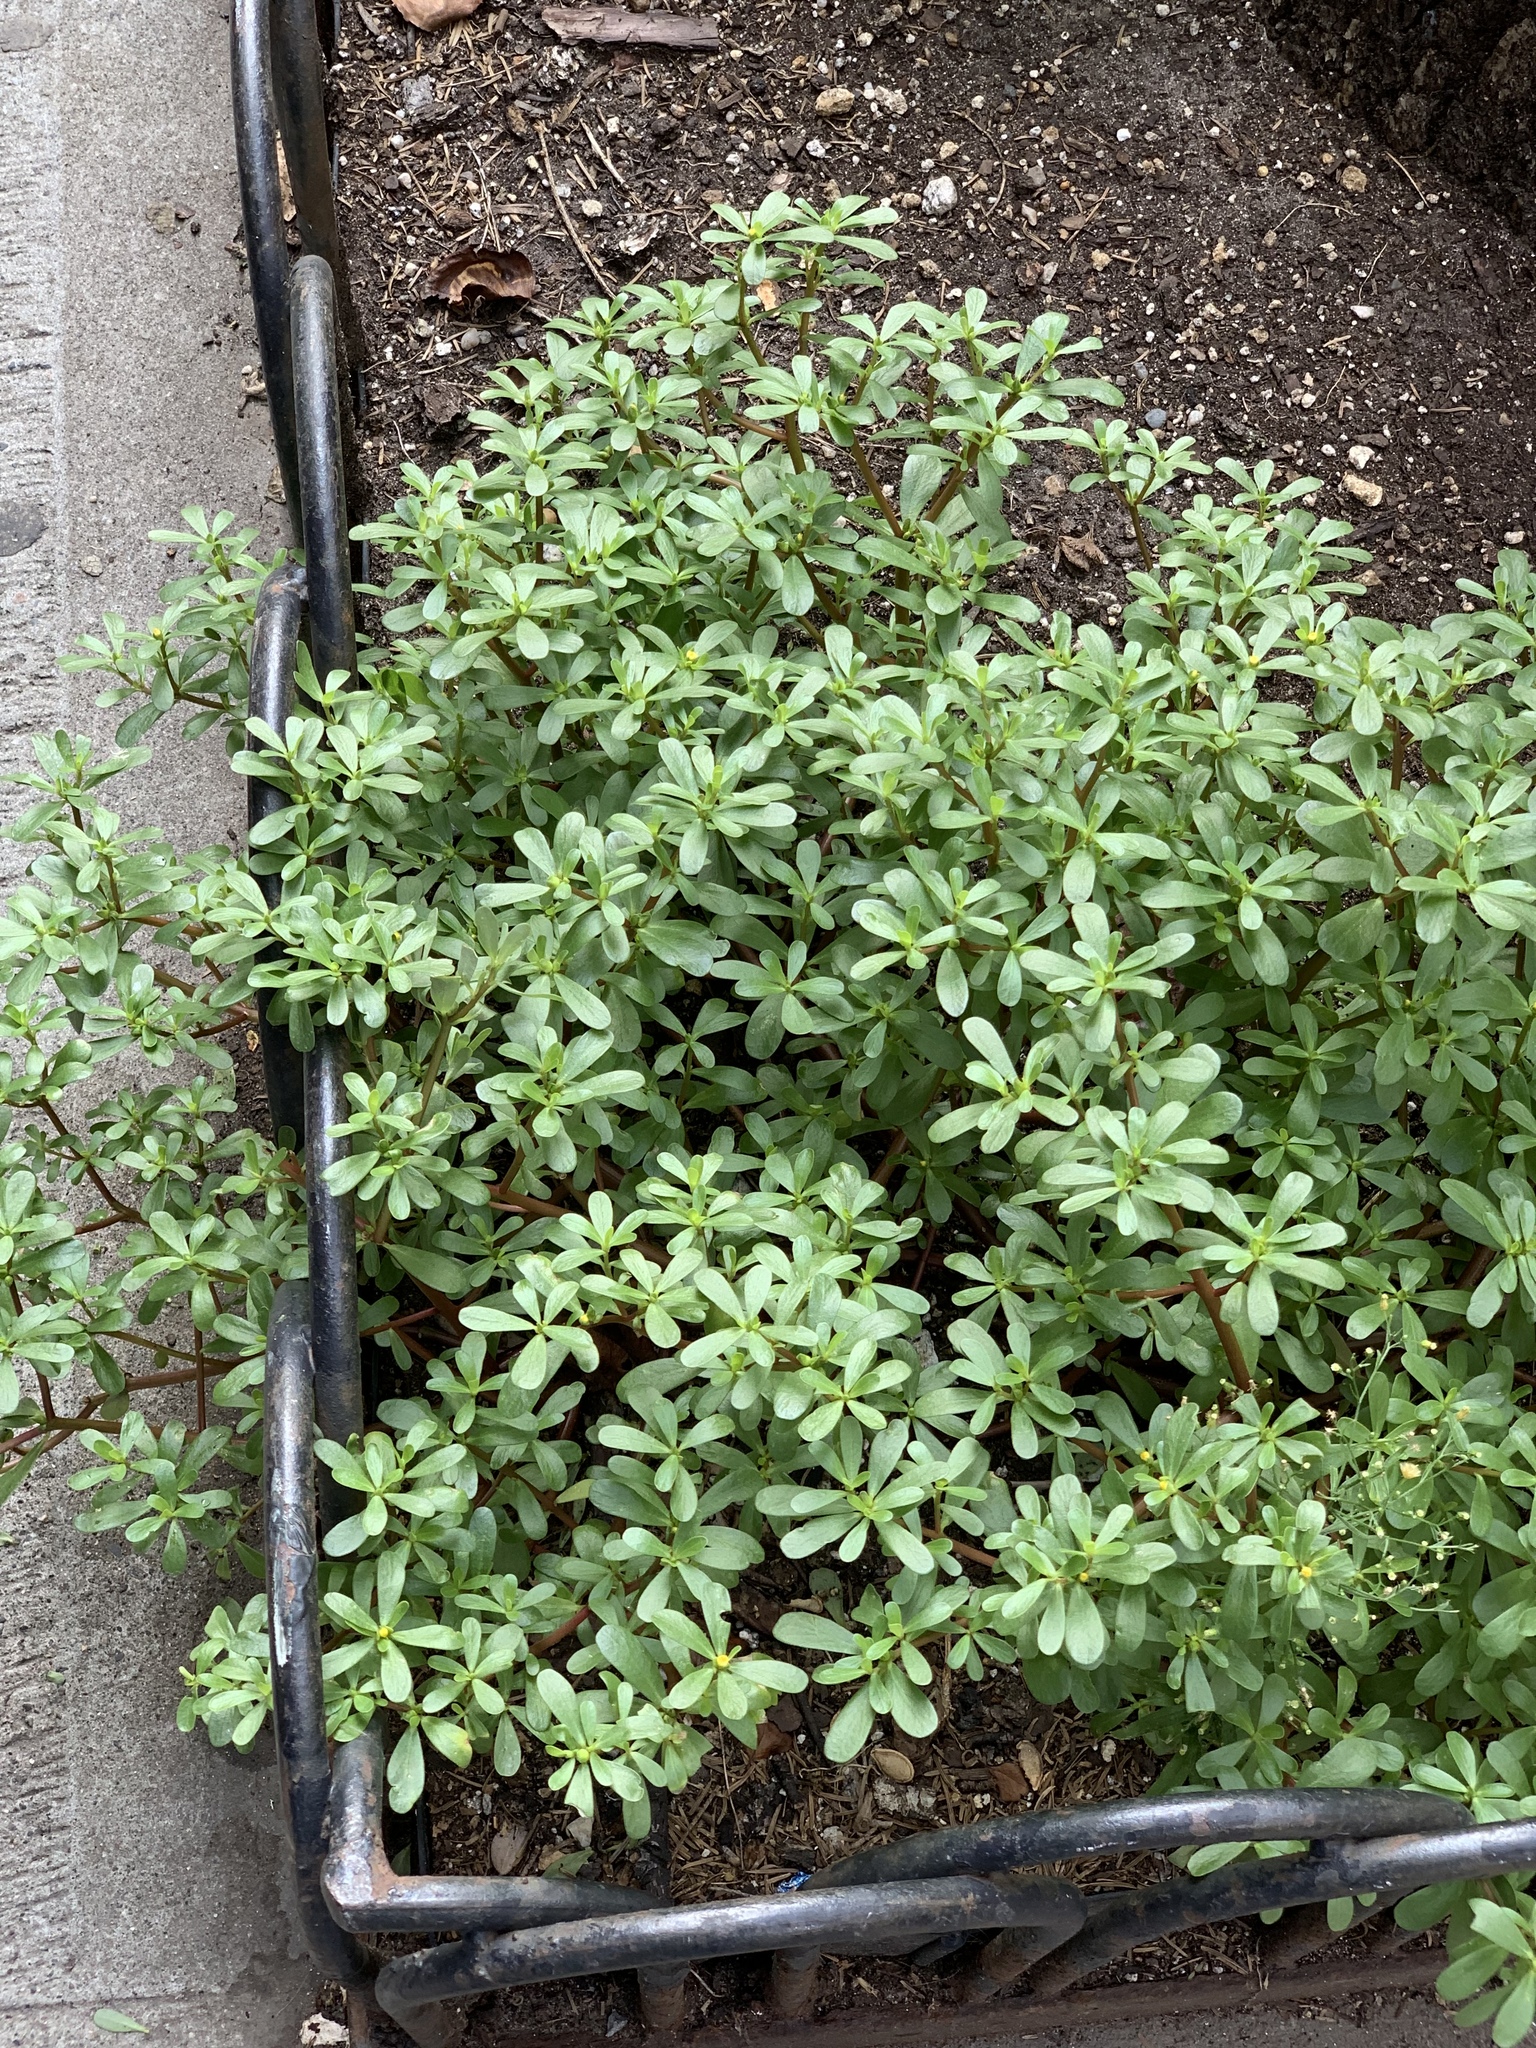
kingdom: Plantae
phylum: Tracheophyta
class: Magnoliopsida
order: Caryophyllales
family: Portulacaceae
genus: Portulaca
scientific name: Portulaca oleracea
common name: Common purslane
